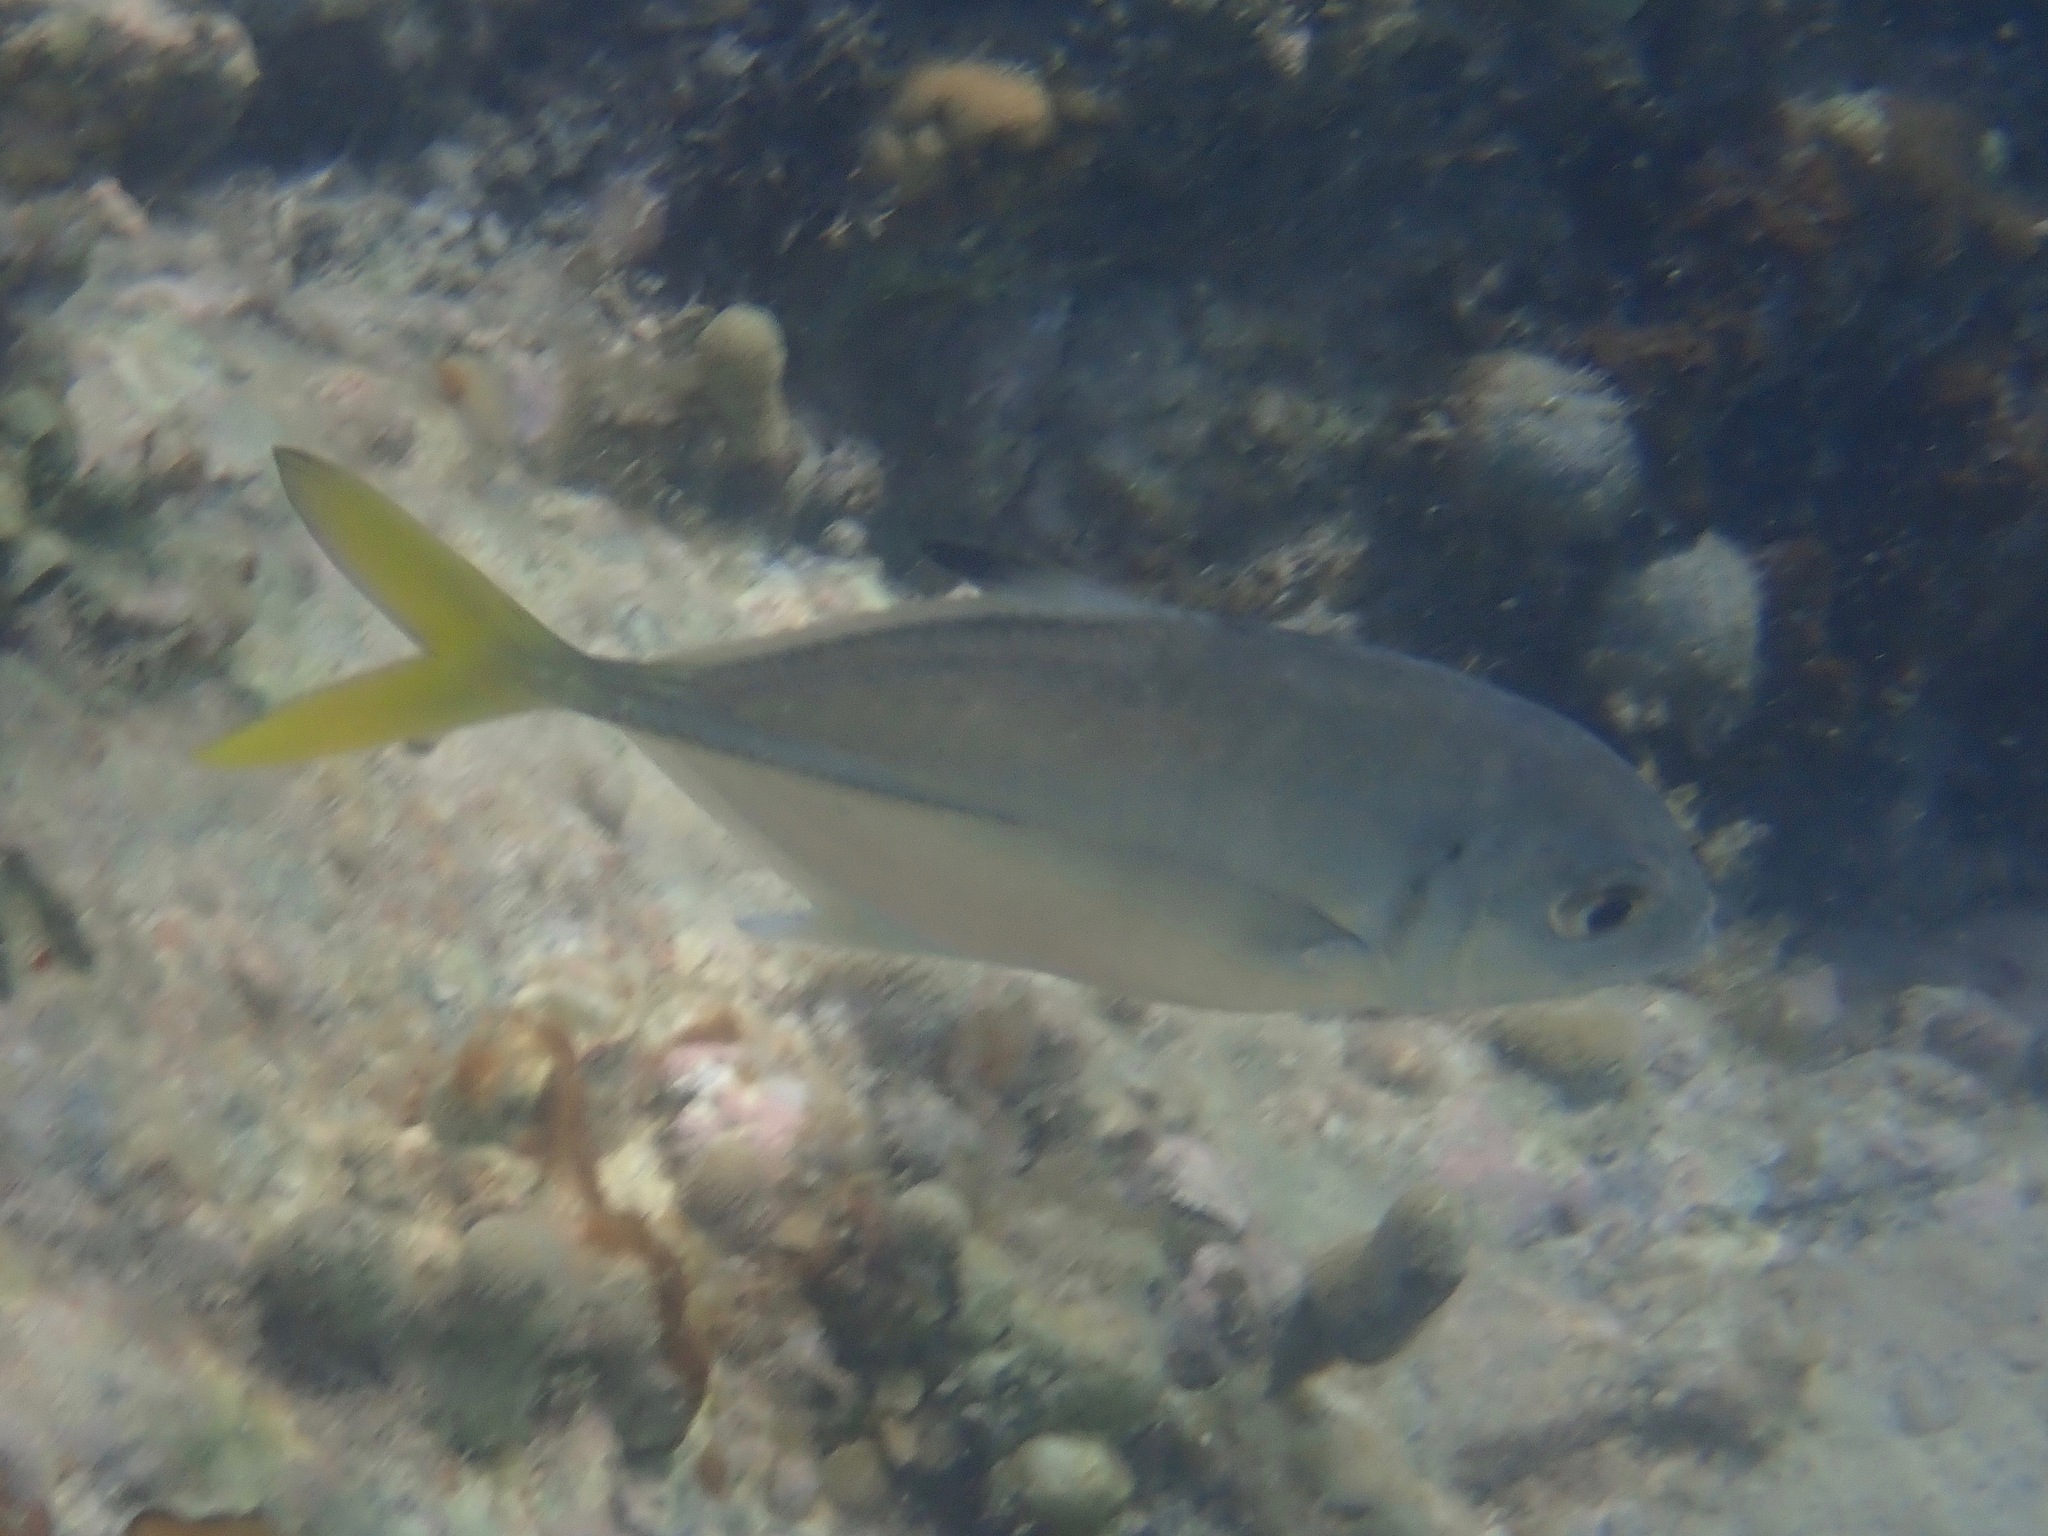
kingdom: Animalia
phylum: Chordata
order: Perciformes
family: Carangidae
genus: Caranx
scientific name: Caranx latus
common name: Horse eye jack
